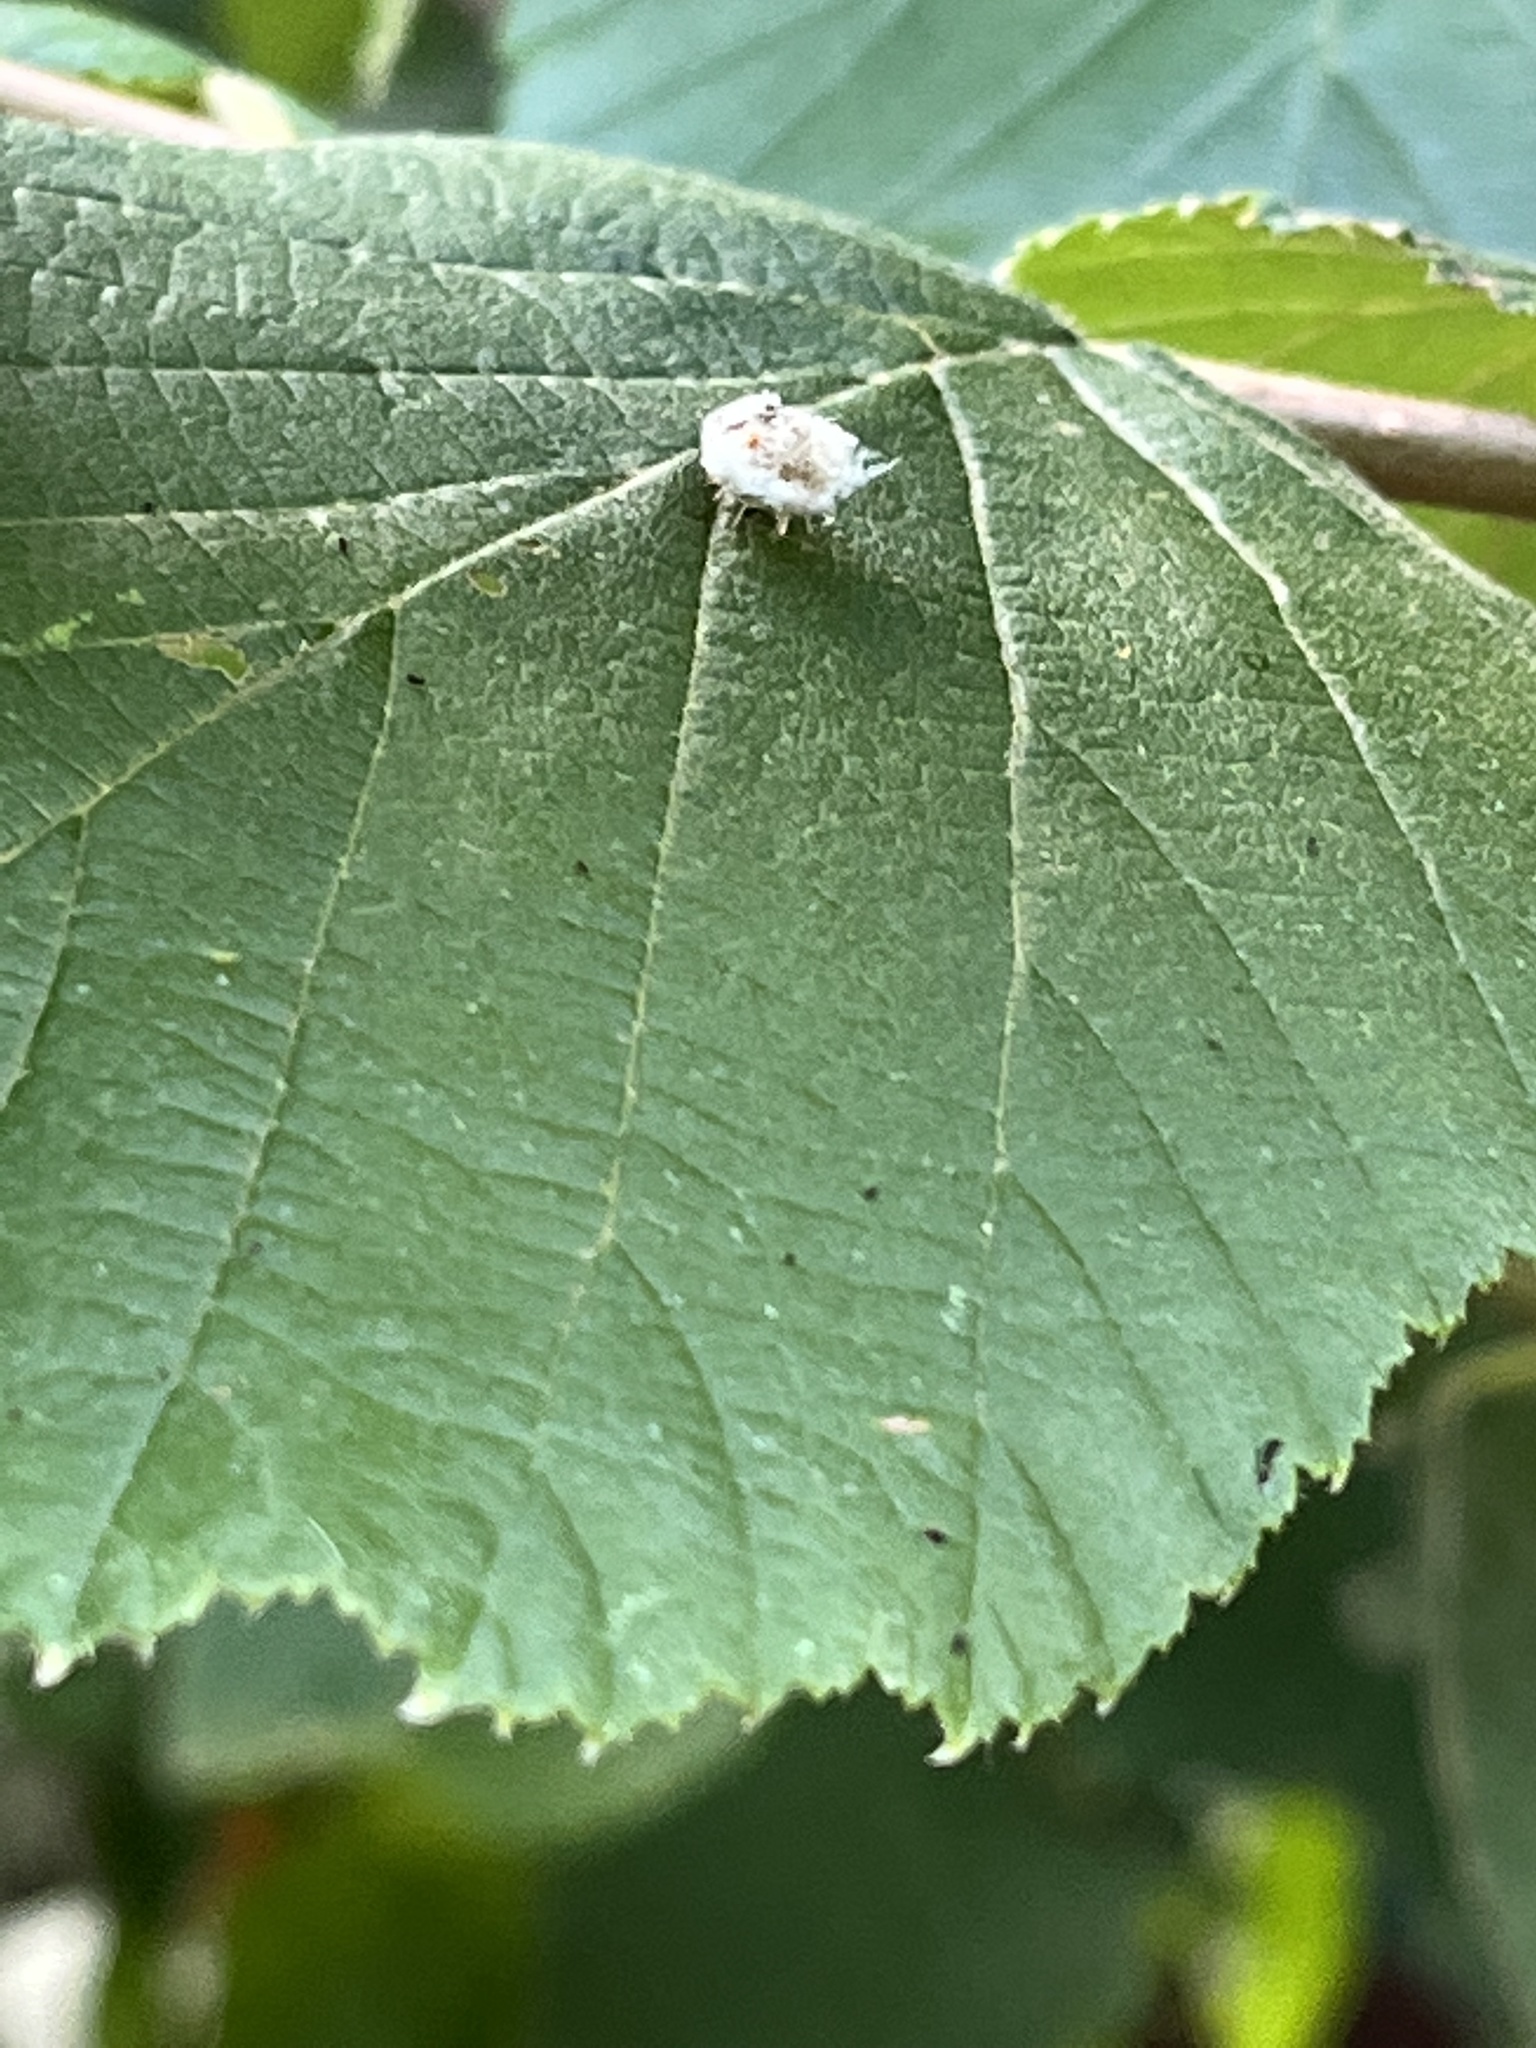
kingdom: Animalia
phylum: Arthropoda
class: Insecta
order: Neuroptera
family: Chrysopidae
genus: Leucochrysa
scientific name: Leucochrysa pavida
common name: Lichen-carrying green lacewing
